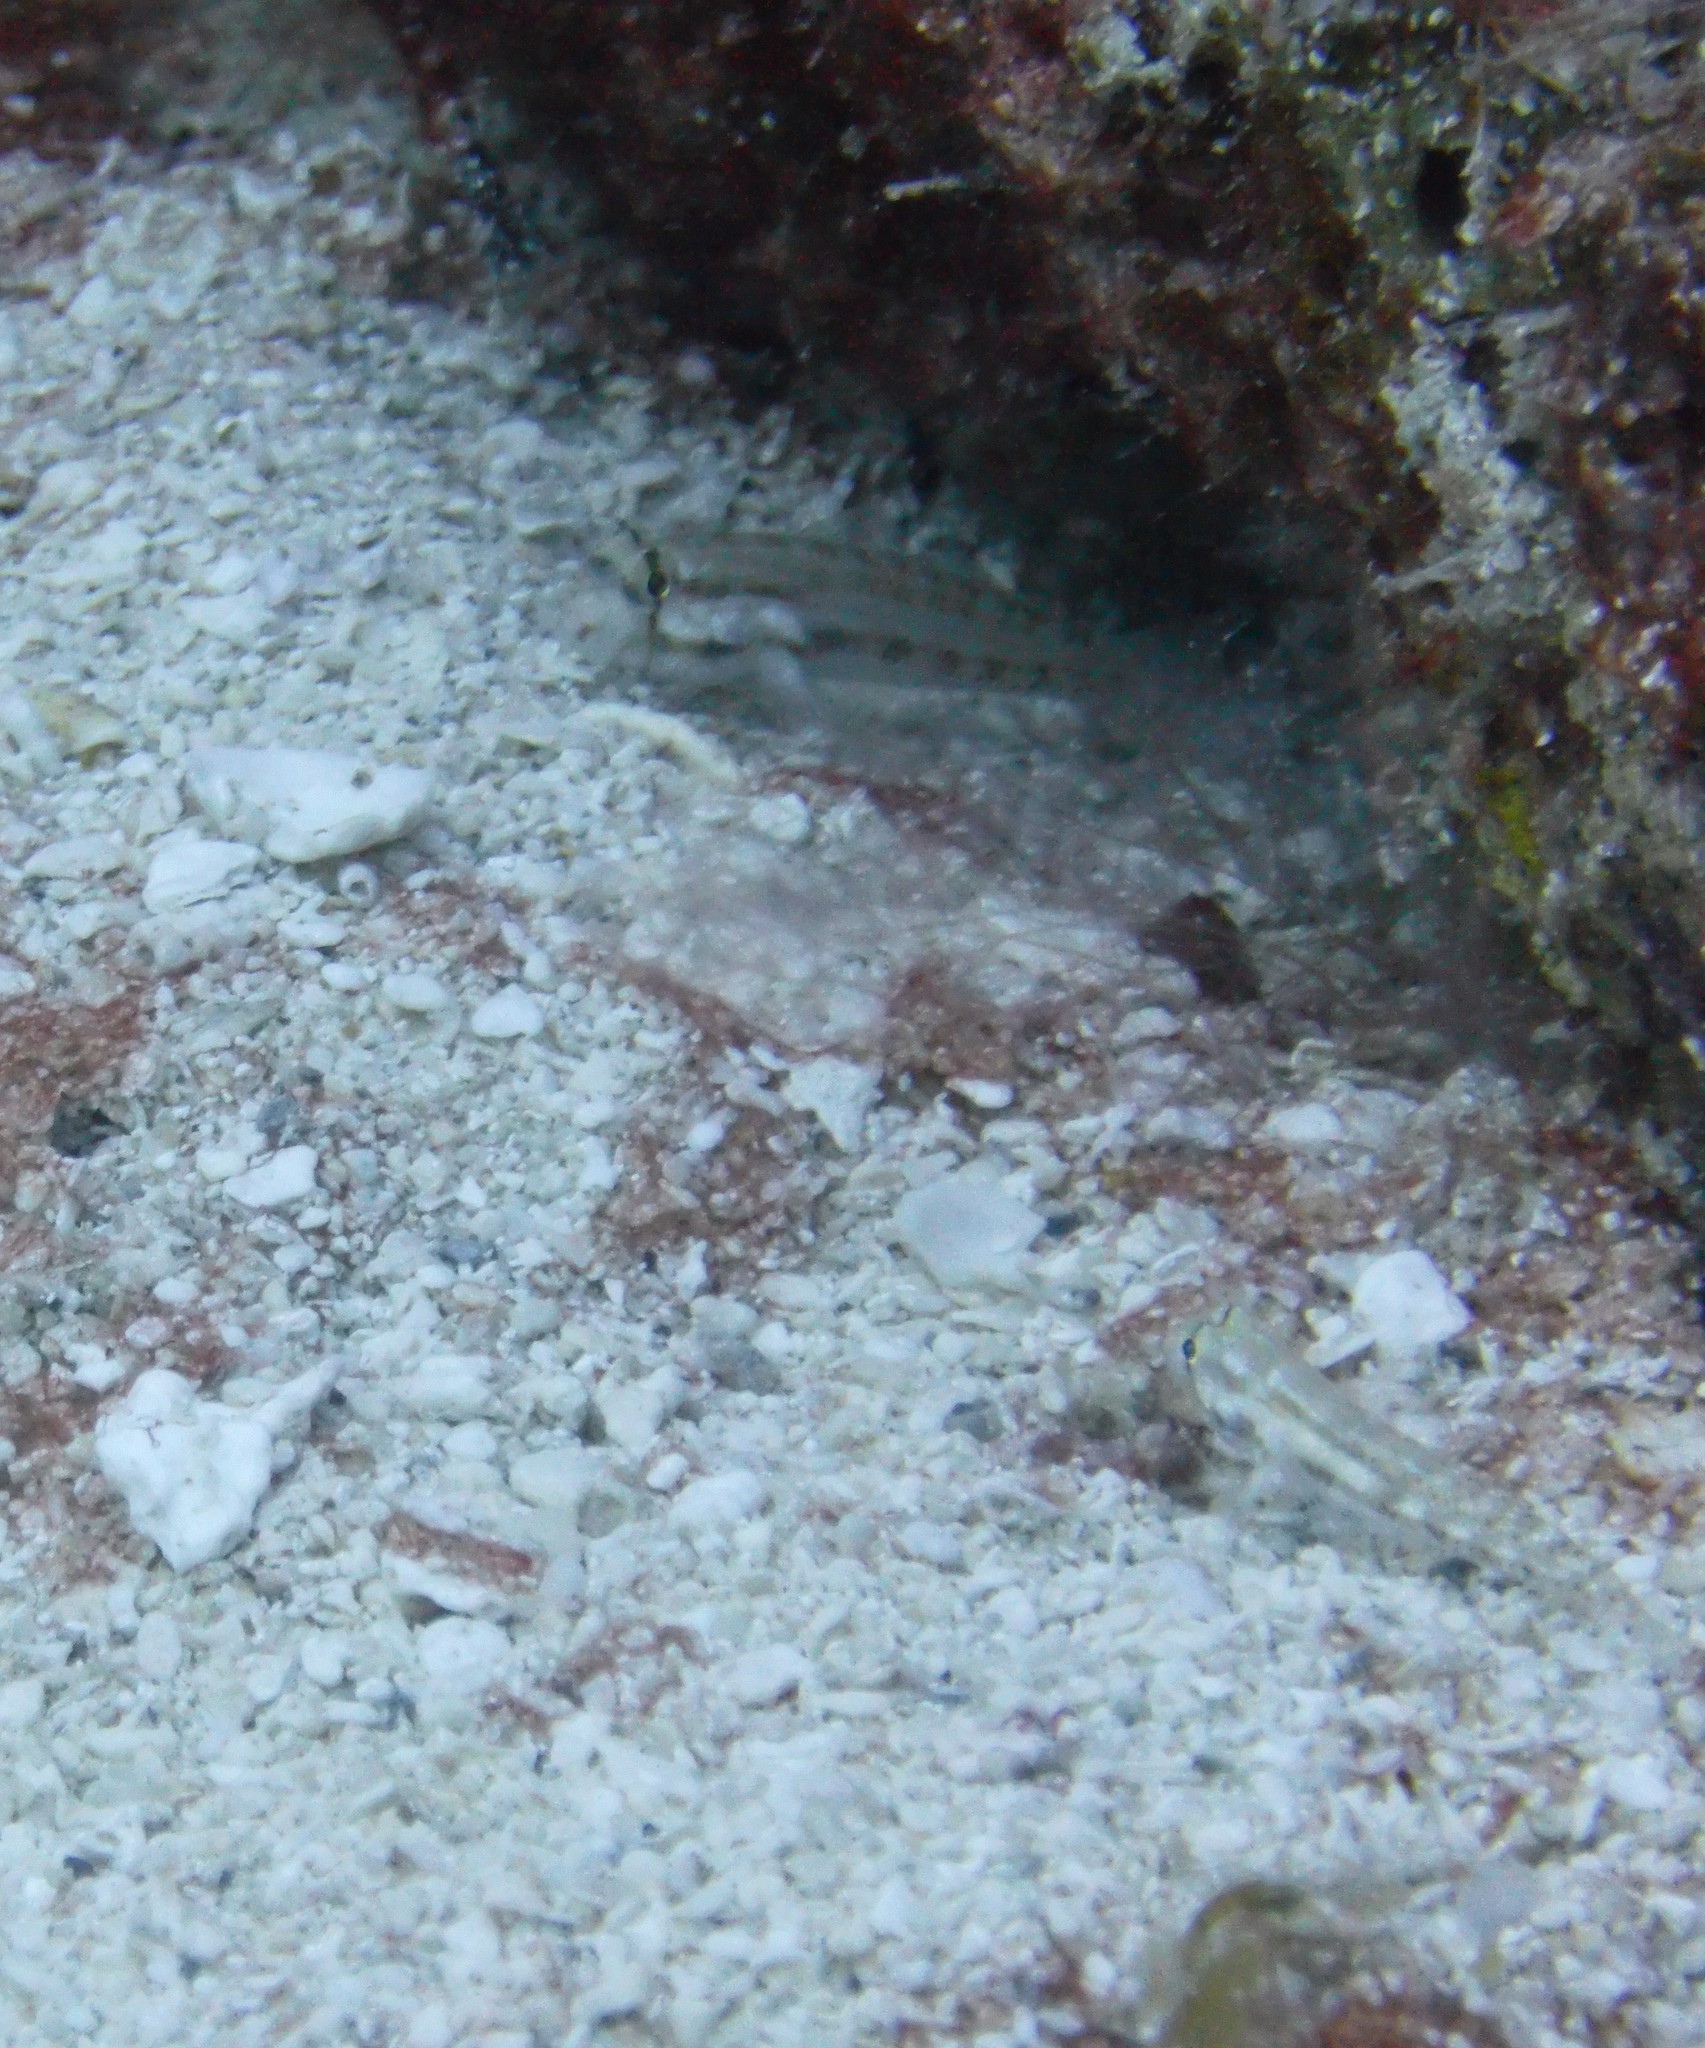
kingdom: Animalia
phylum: Chordata
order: Perciformes
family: Gobiidae
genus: Gnatholepis
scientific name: Gnatholepis thompsoni
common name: Goldspot goby
